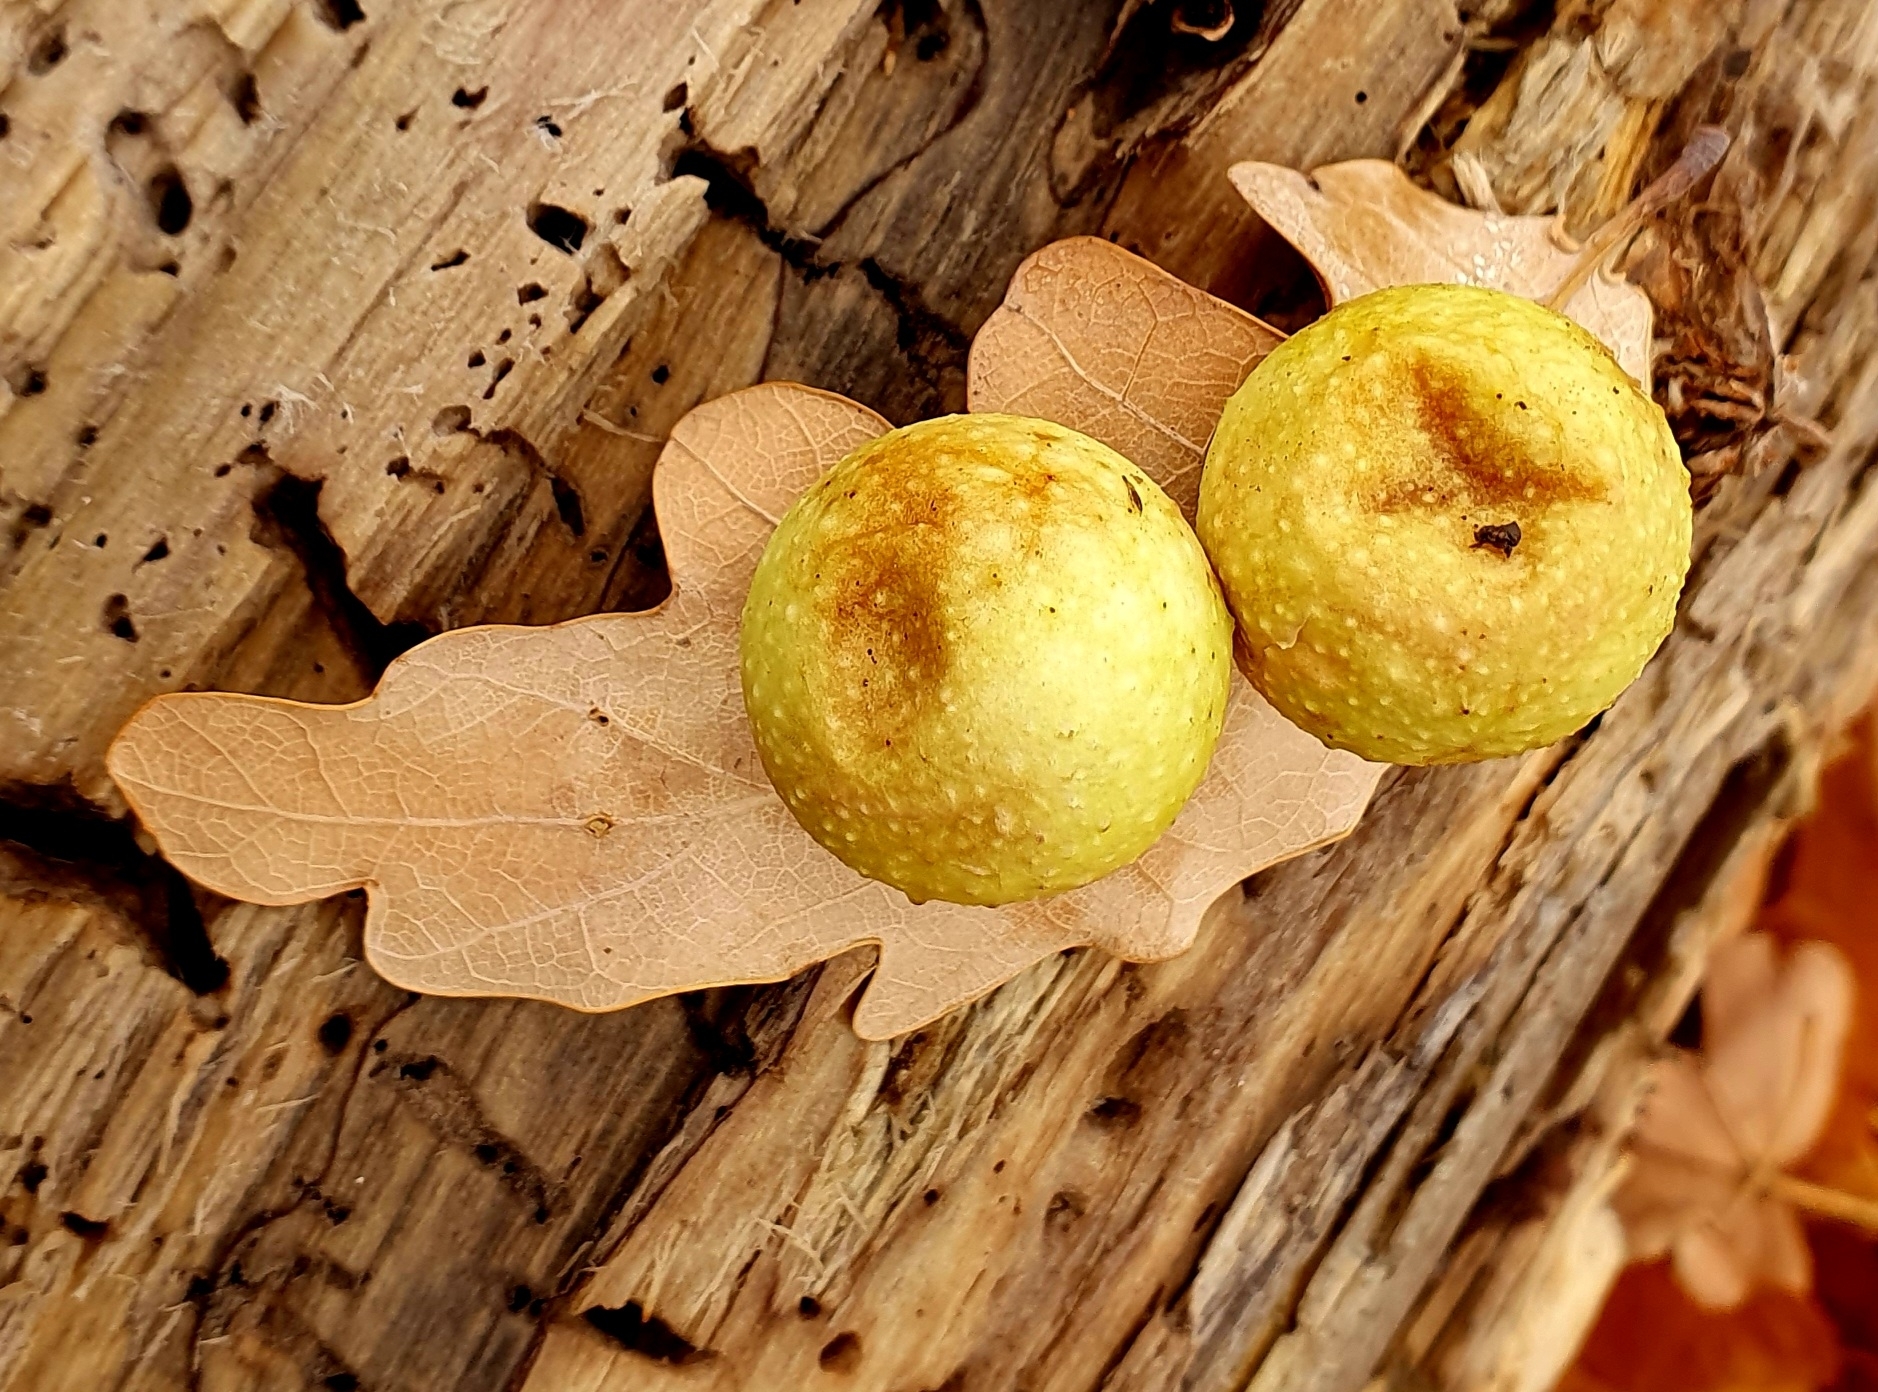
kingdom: Animalia
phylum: Arthropoda
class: Insecta
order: Hymenoptera
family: Cynipidae
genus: Cynips
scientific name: Cynips quercusfolii
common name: Cherry gall
